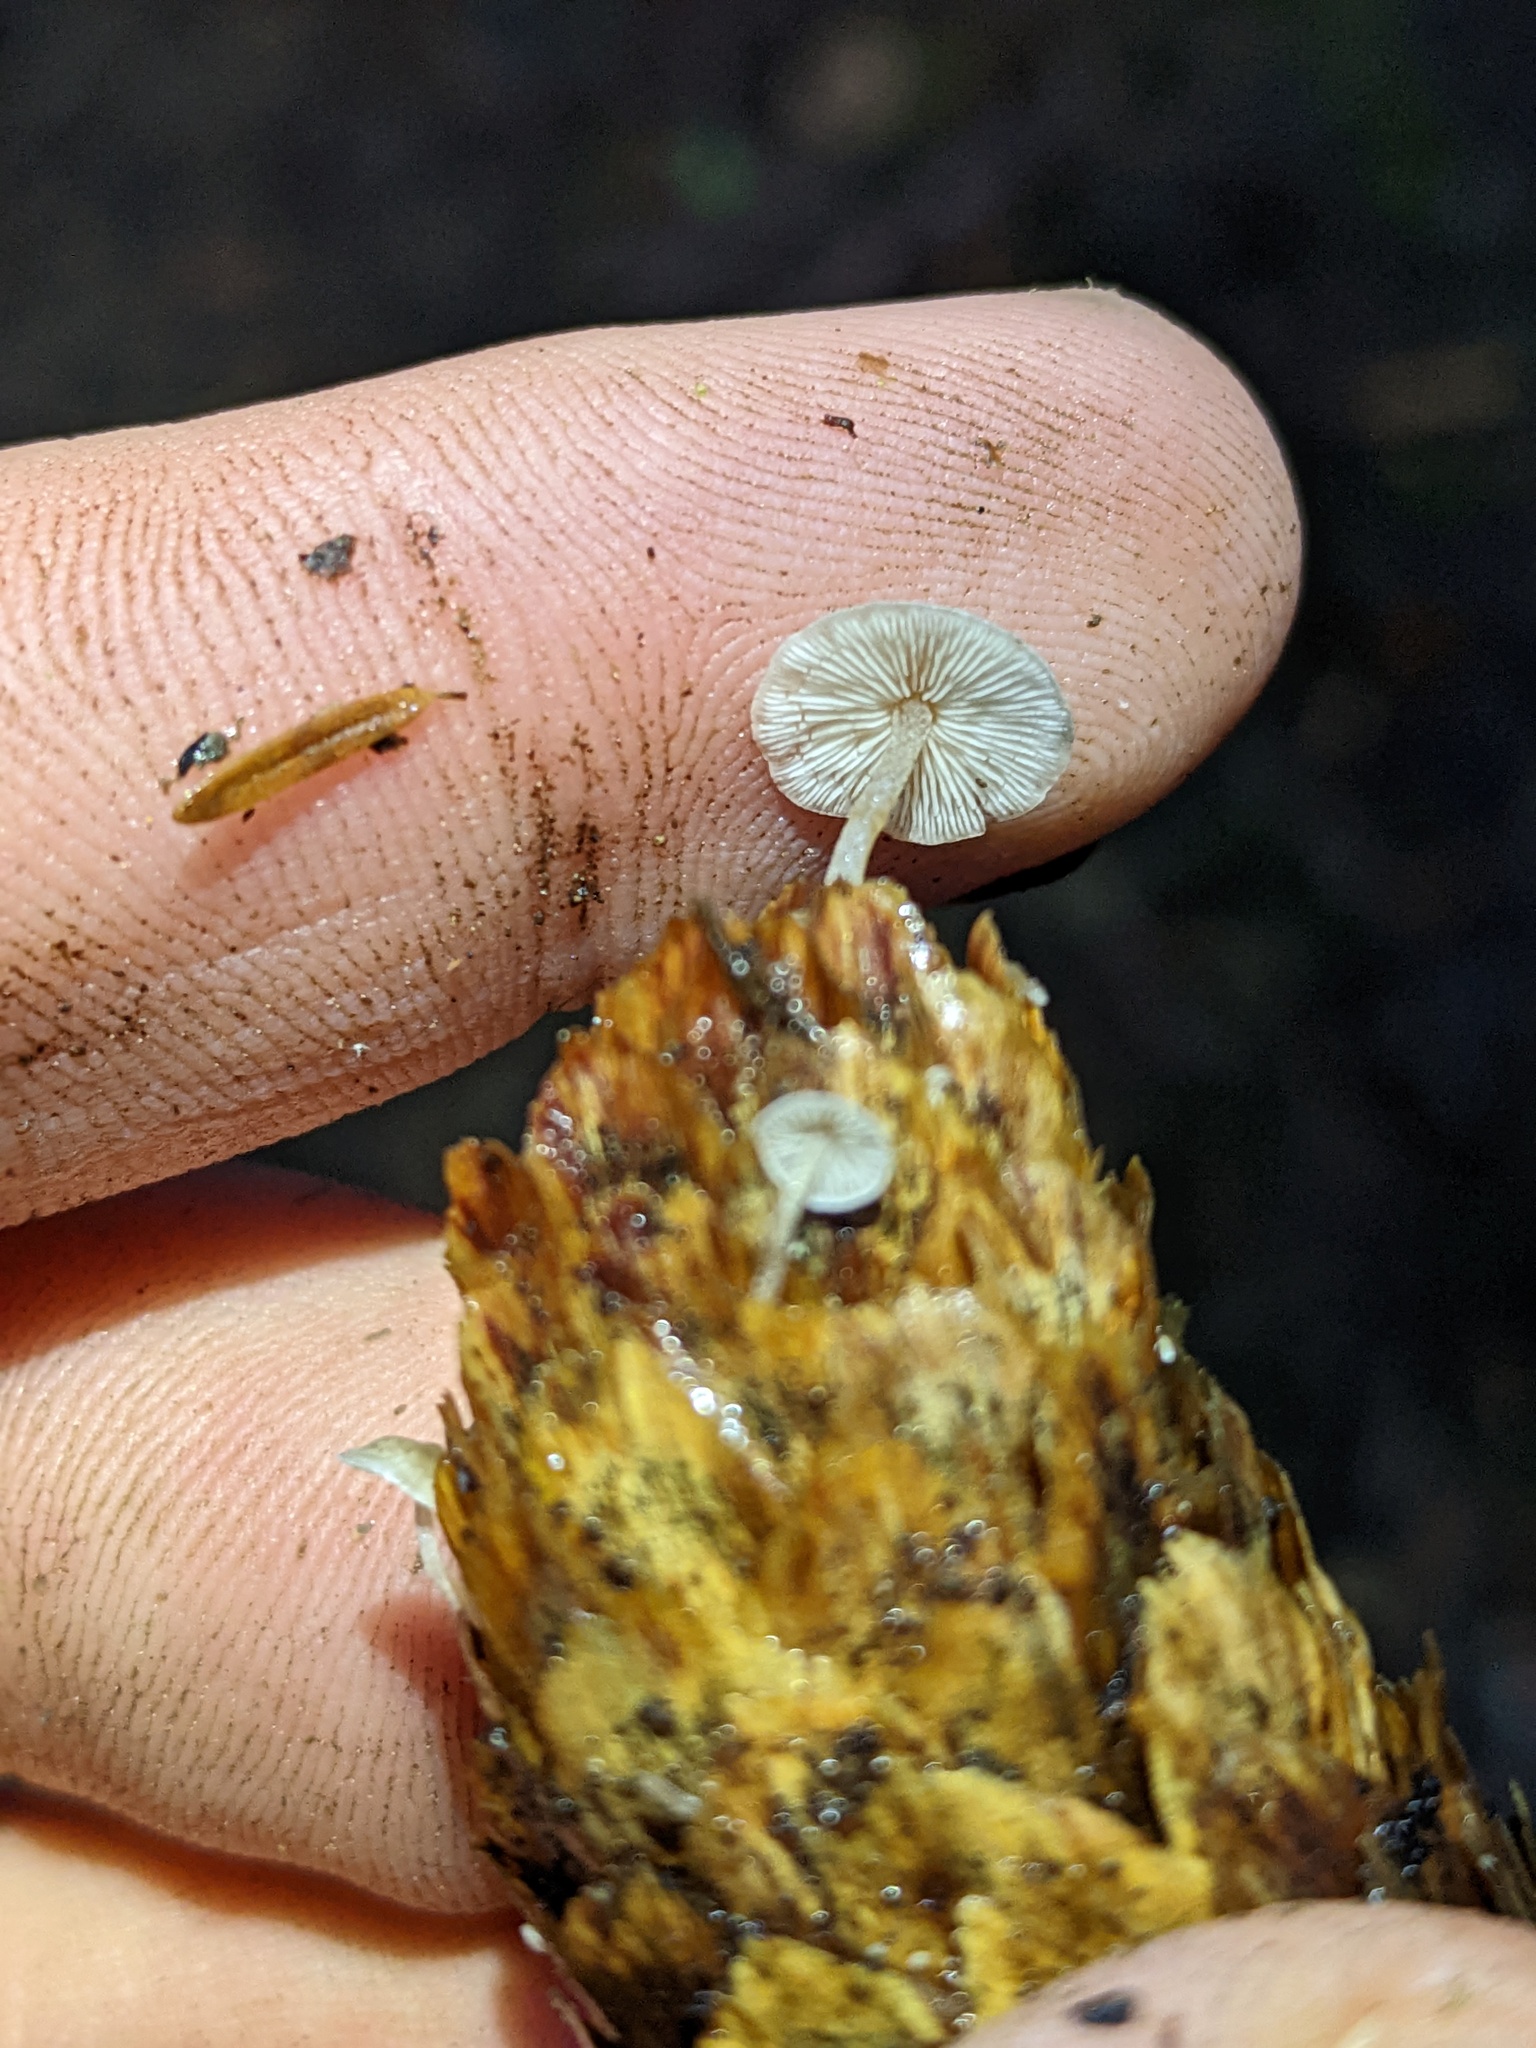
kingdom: Fungi
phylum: Basidiomycota
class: Agaricomycetes
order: Agaricales
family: Marasmiaceae
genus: Baeospora
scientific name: Baeospora myosura
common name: Conifercone cap
